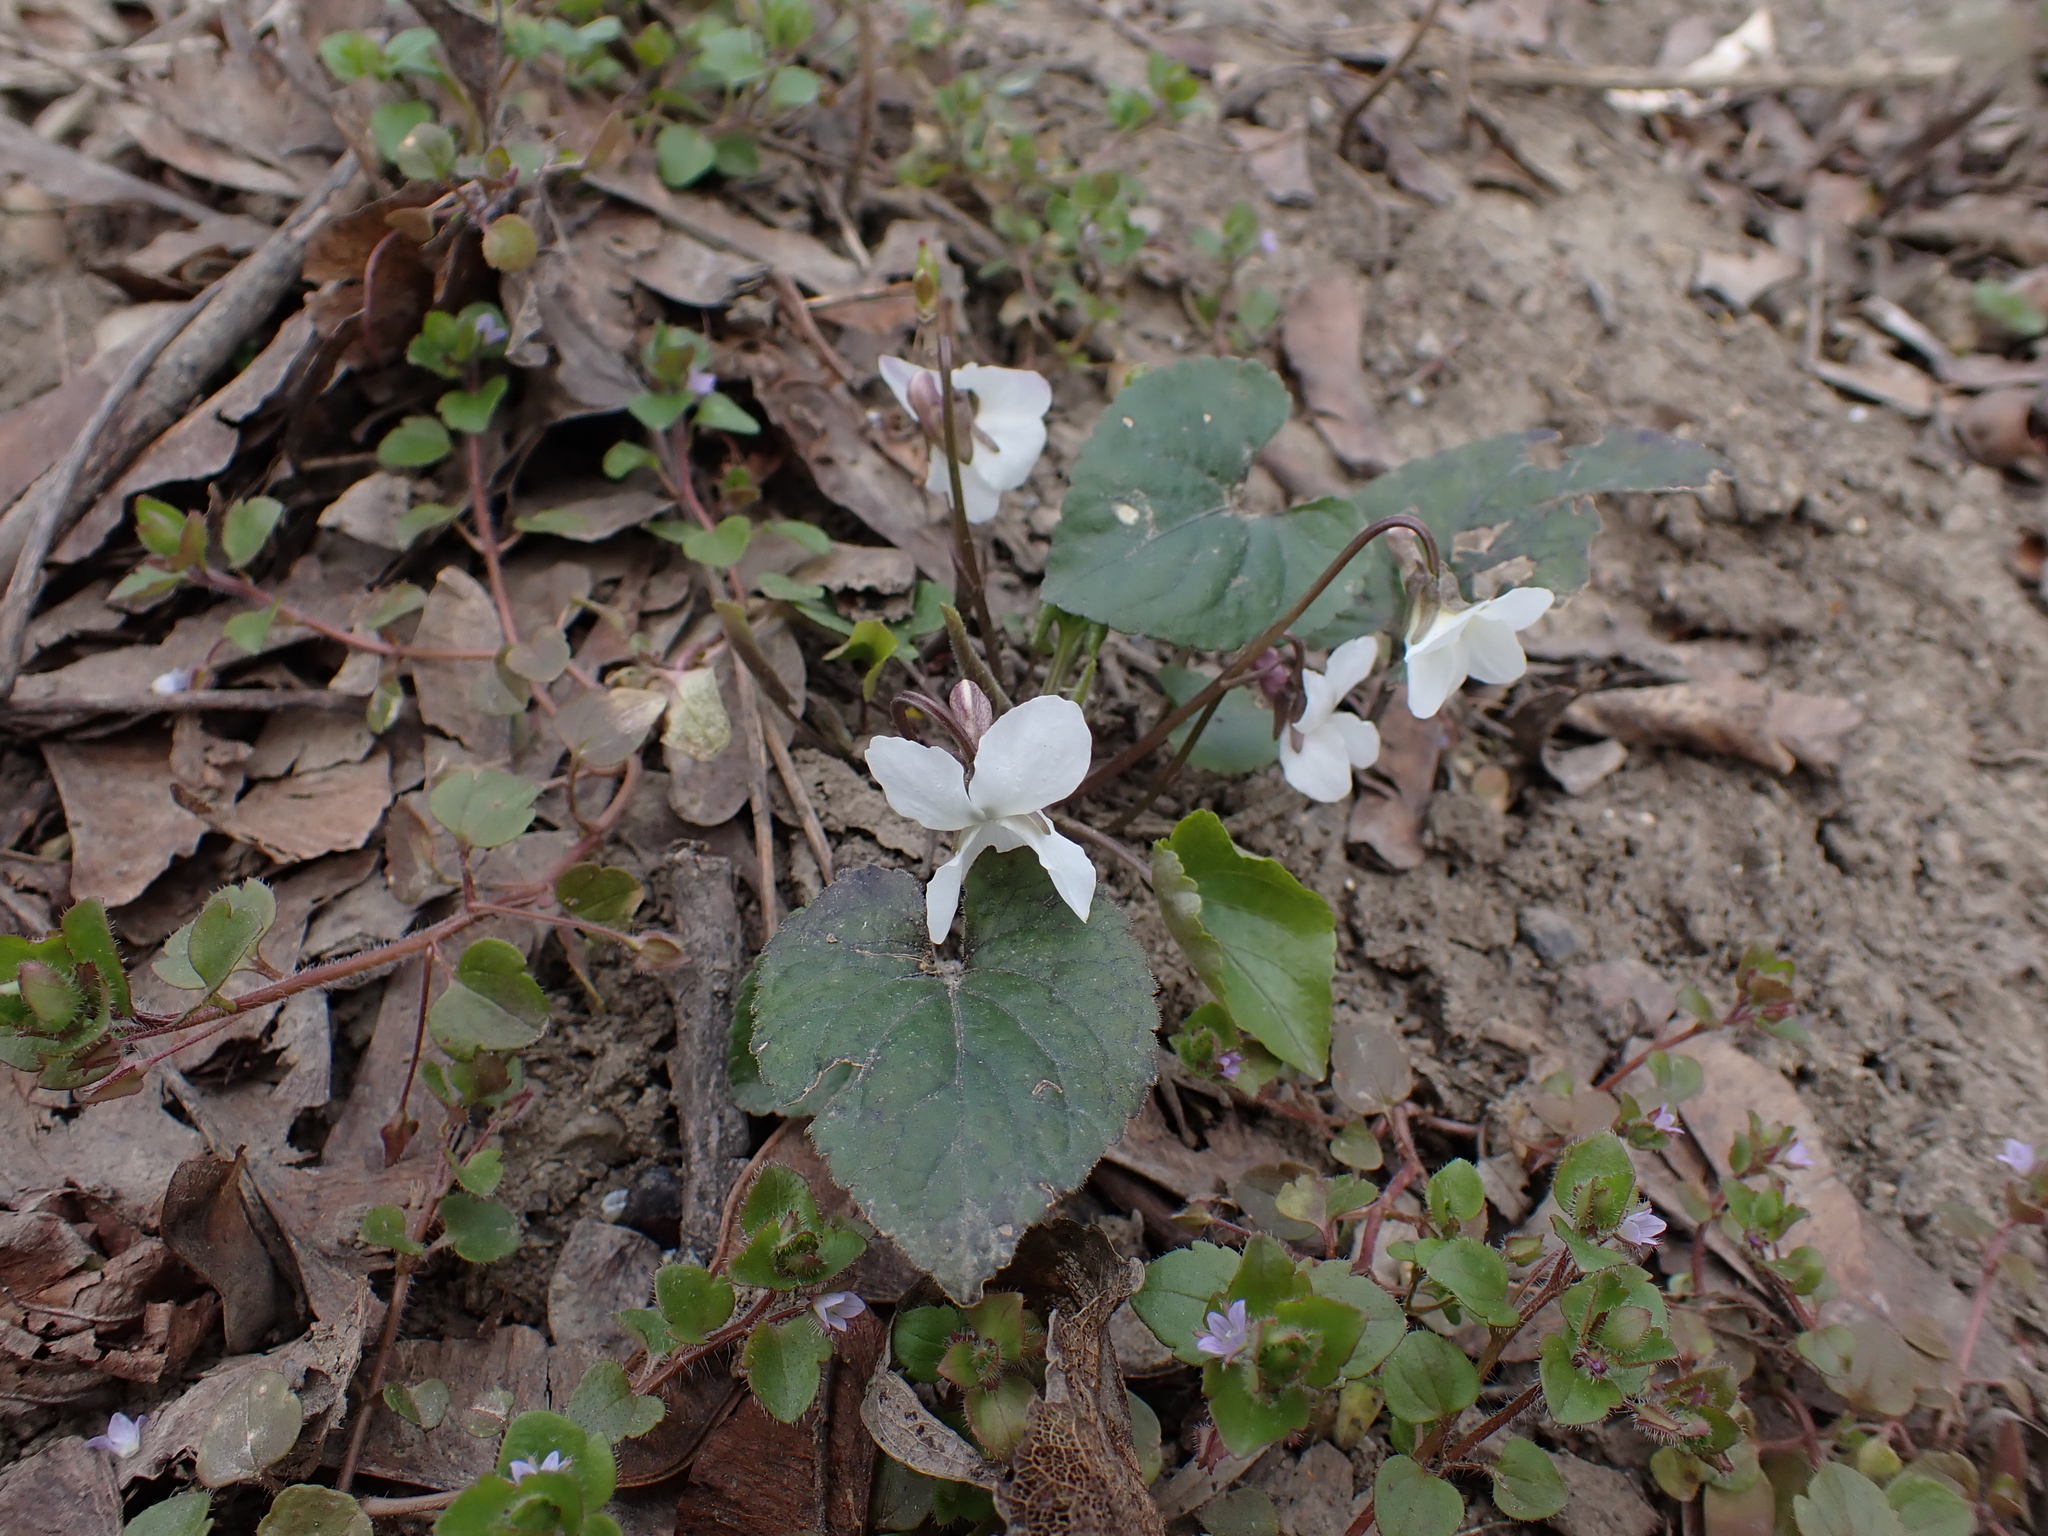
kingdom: Plantae
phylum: Tracheophyta
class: Magnoliopsida
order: Malpighiales
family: Violaceae
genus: Viola
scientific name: Viola alba
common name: White violet
